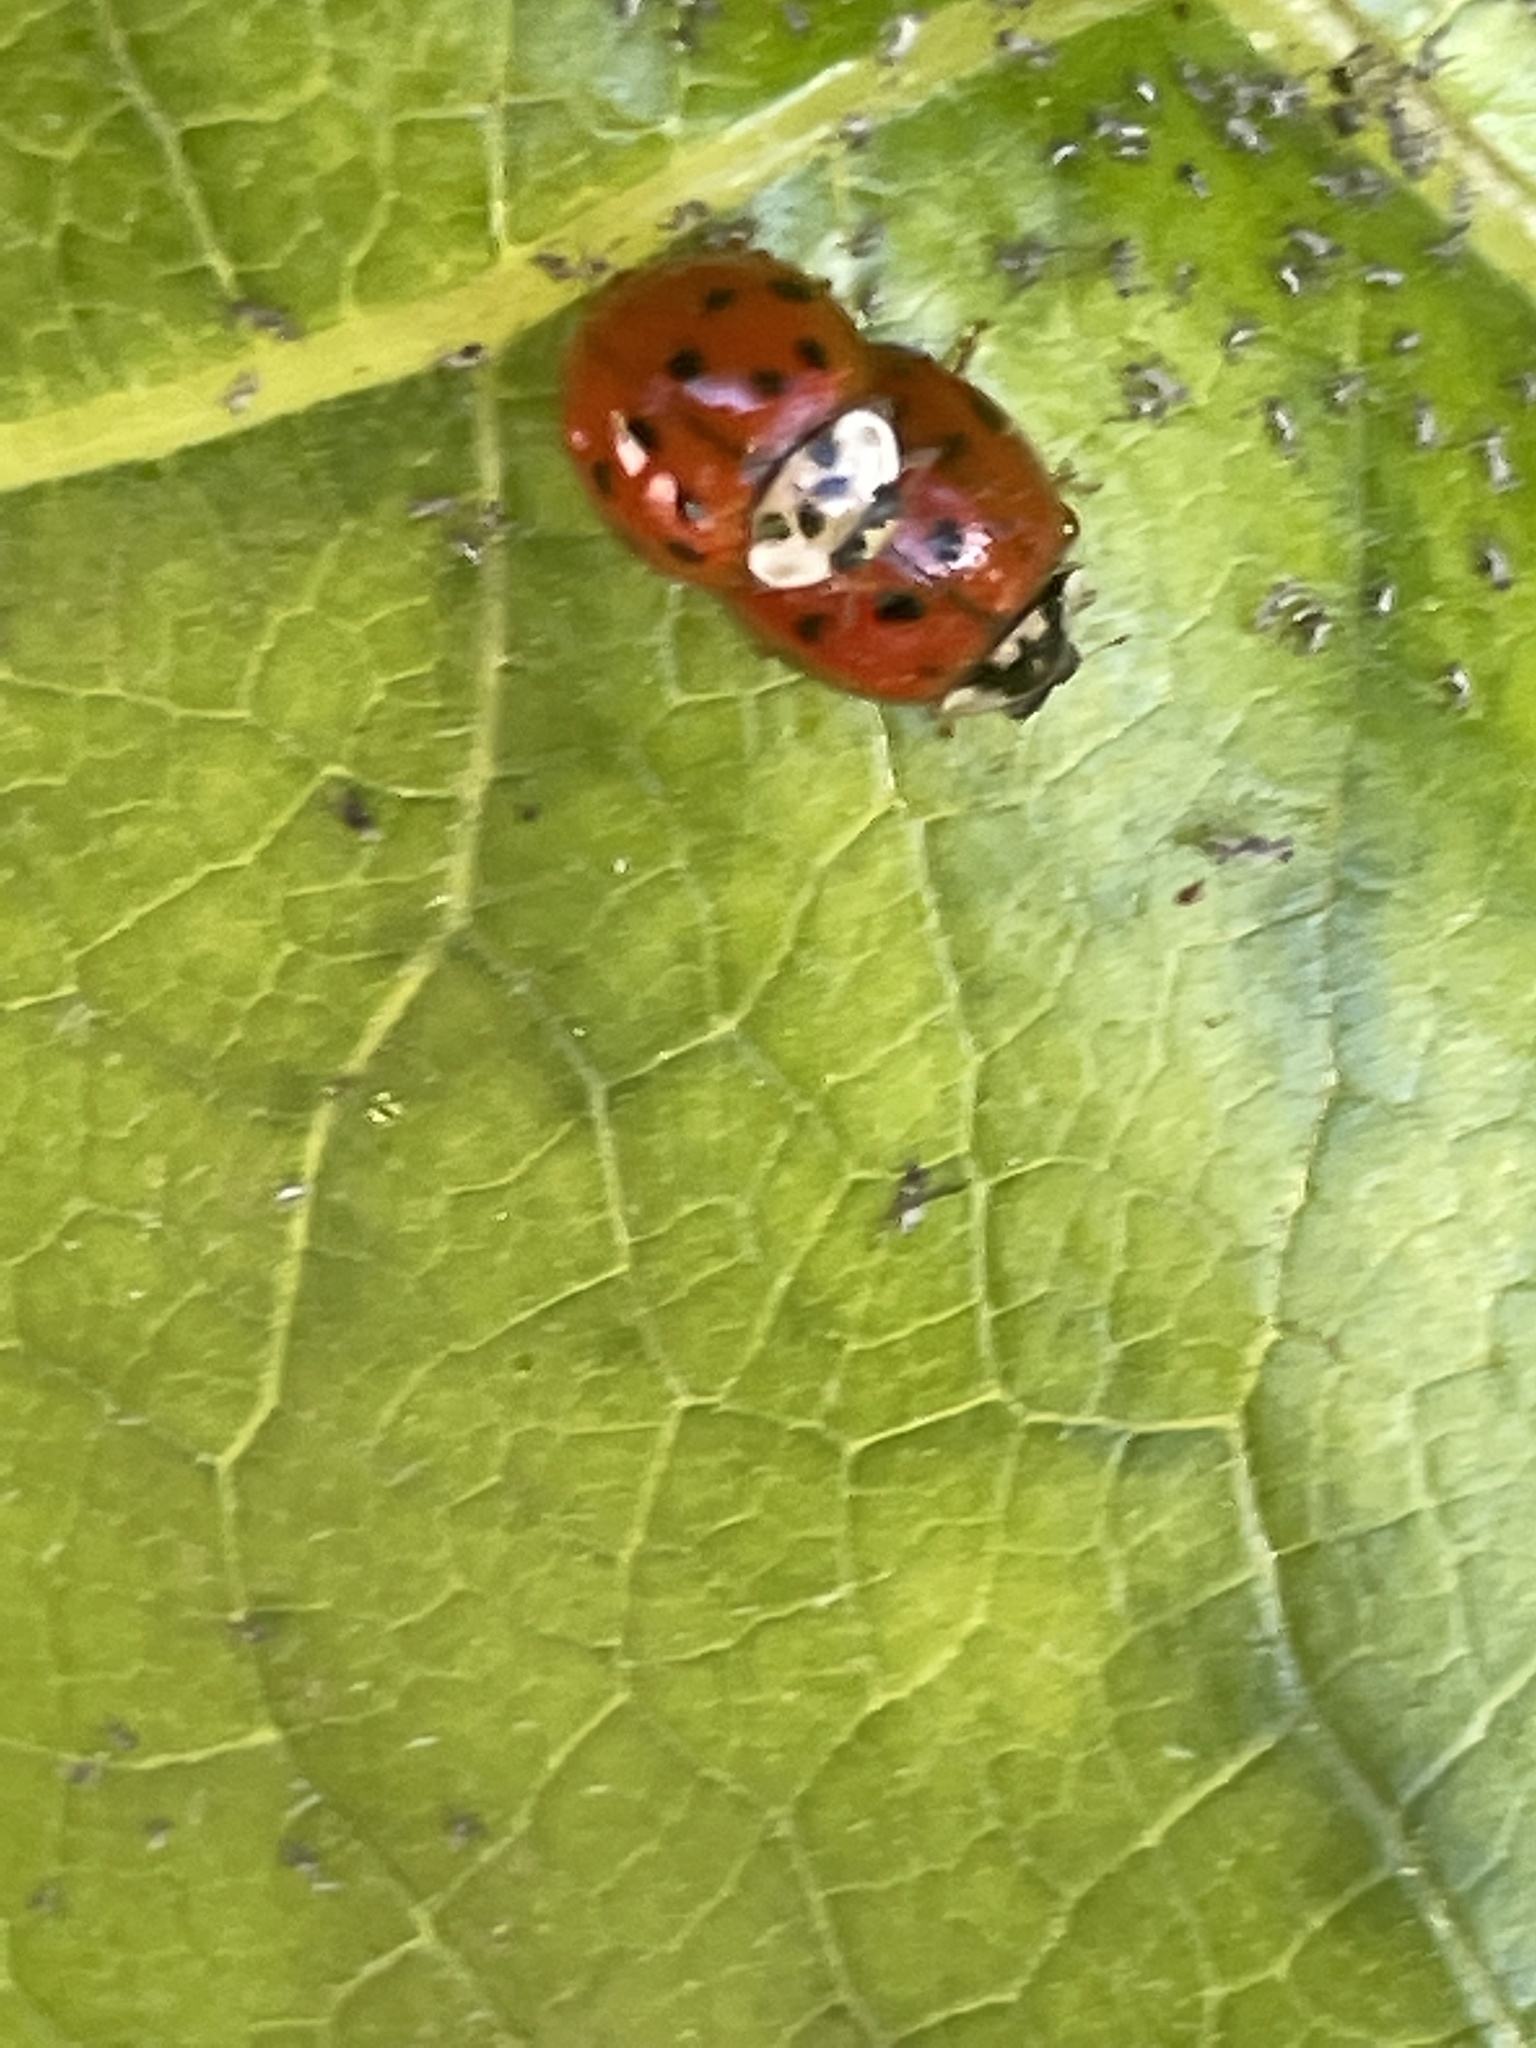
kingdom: Animalia
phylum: Arthropoda
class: Insecta
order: Coleoptera
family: Coccinellidae
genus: Harmonia
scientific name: Harmonia axyridis
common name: Harlequin ladybird
